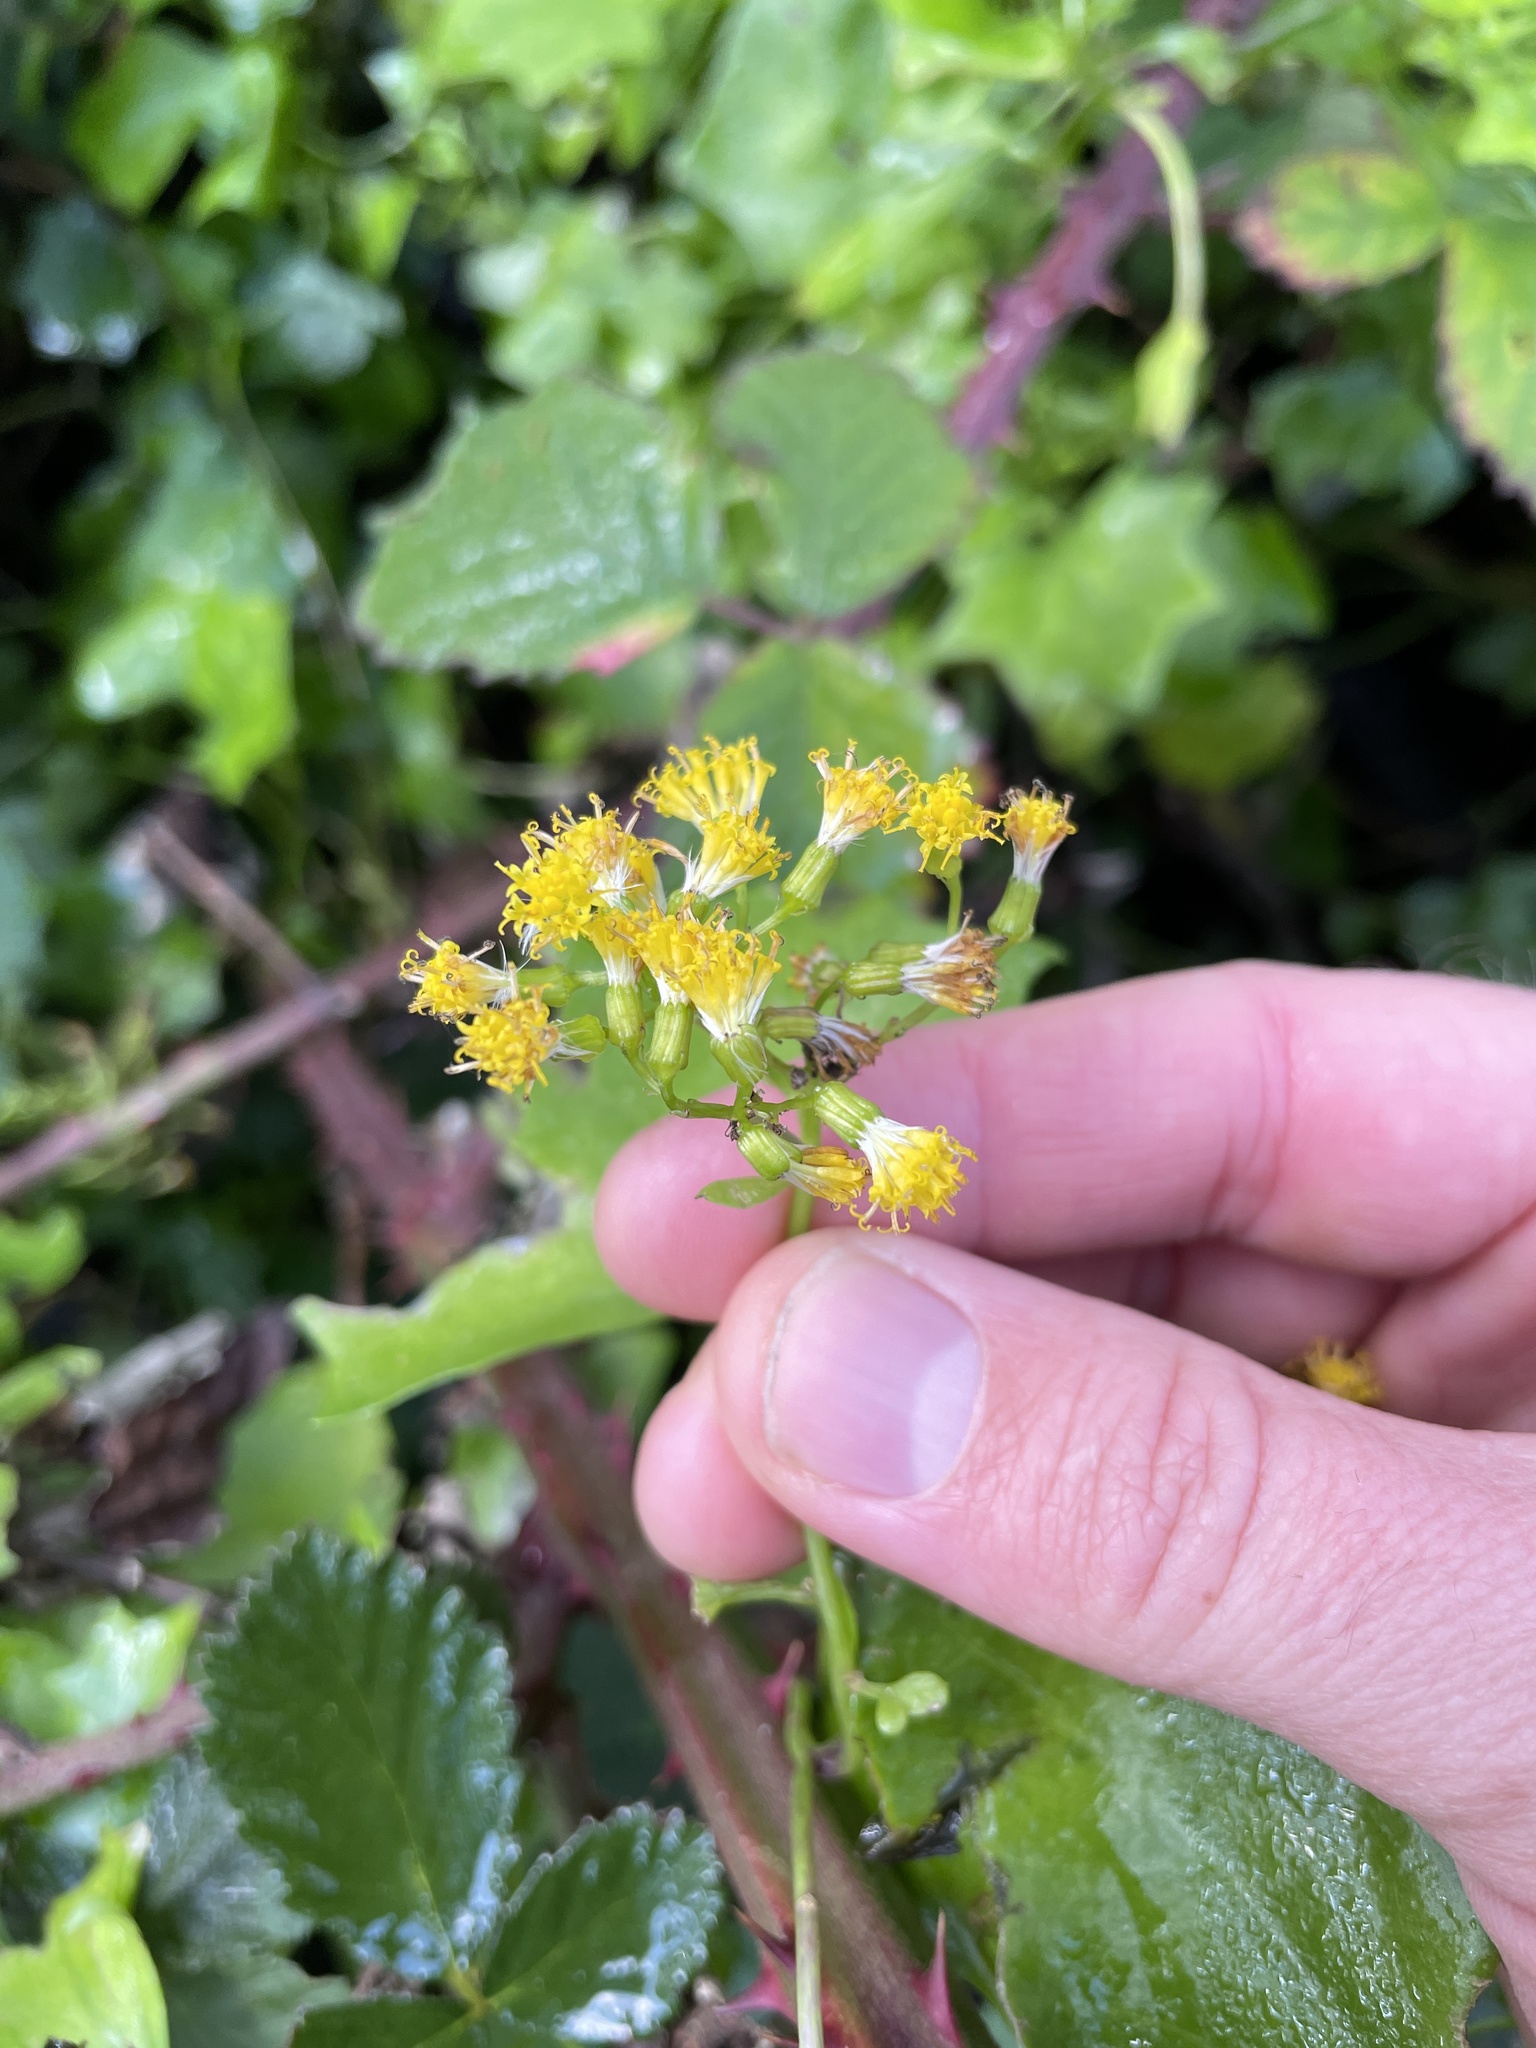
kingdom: Plantae
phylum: Tracheophyta
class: Magnoliopsida
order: Asterales
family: Asteraceae
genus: Delairea
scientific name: Delairea odorata
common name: Cape-ivy
